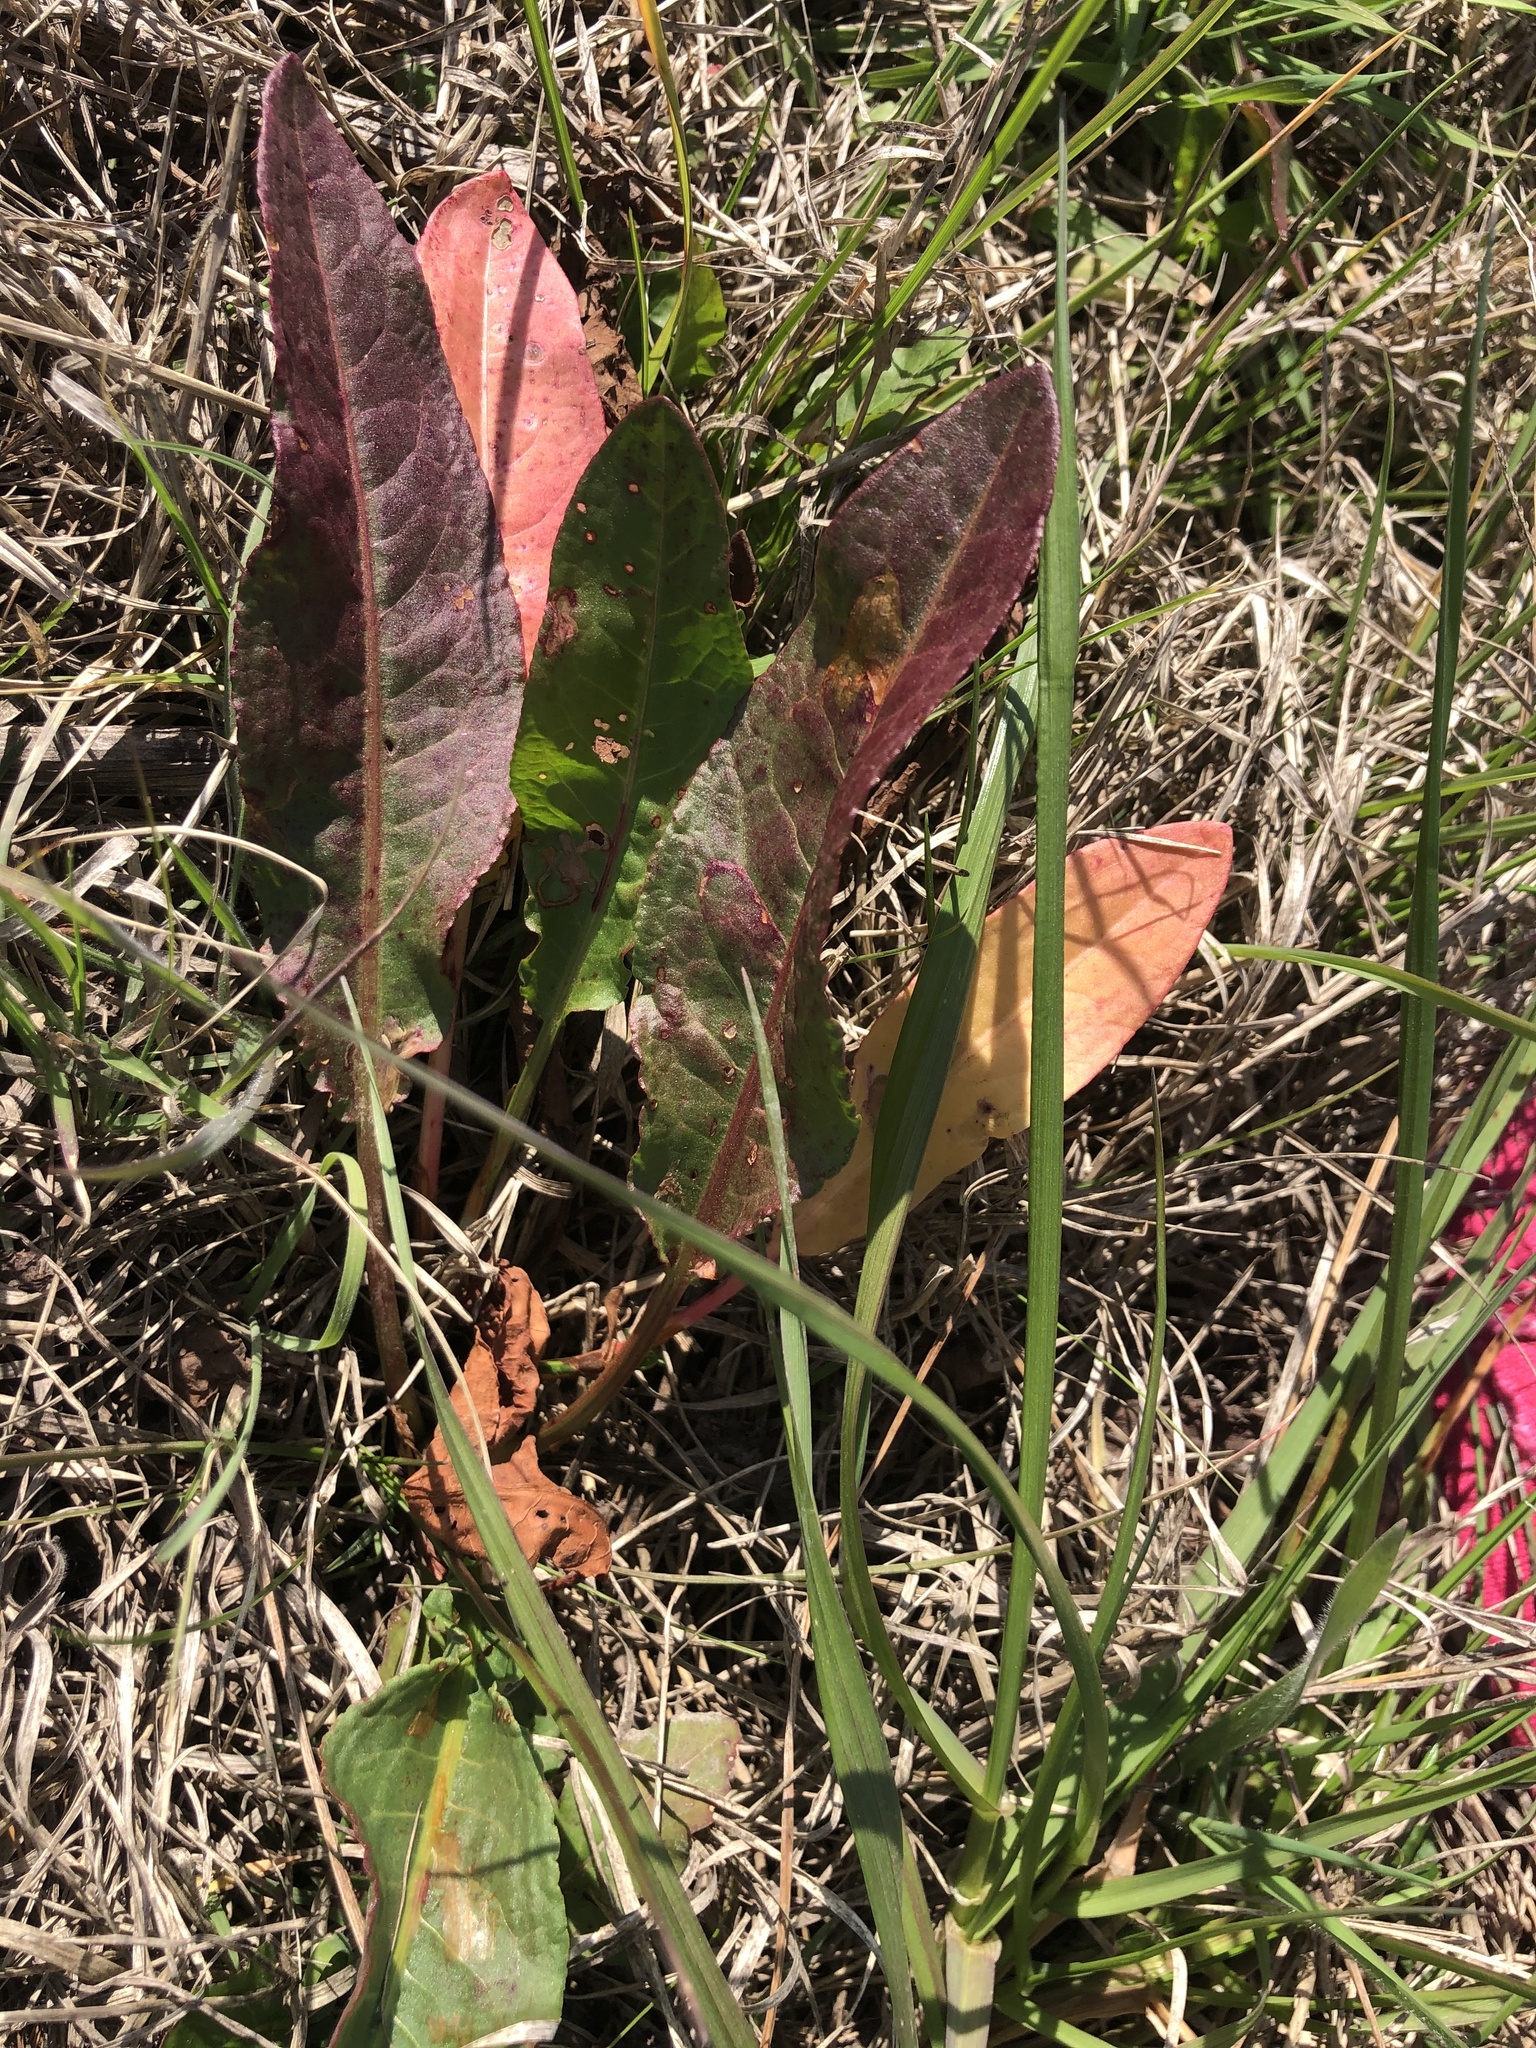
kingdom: Plantae
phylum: Tracheophyta
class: Magnoliopsida
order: Caryophyllales
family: Polygonaceae
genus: Rumex
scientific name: Rumex crispus
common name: Curled dock
